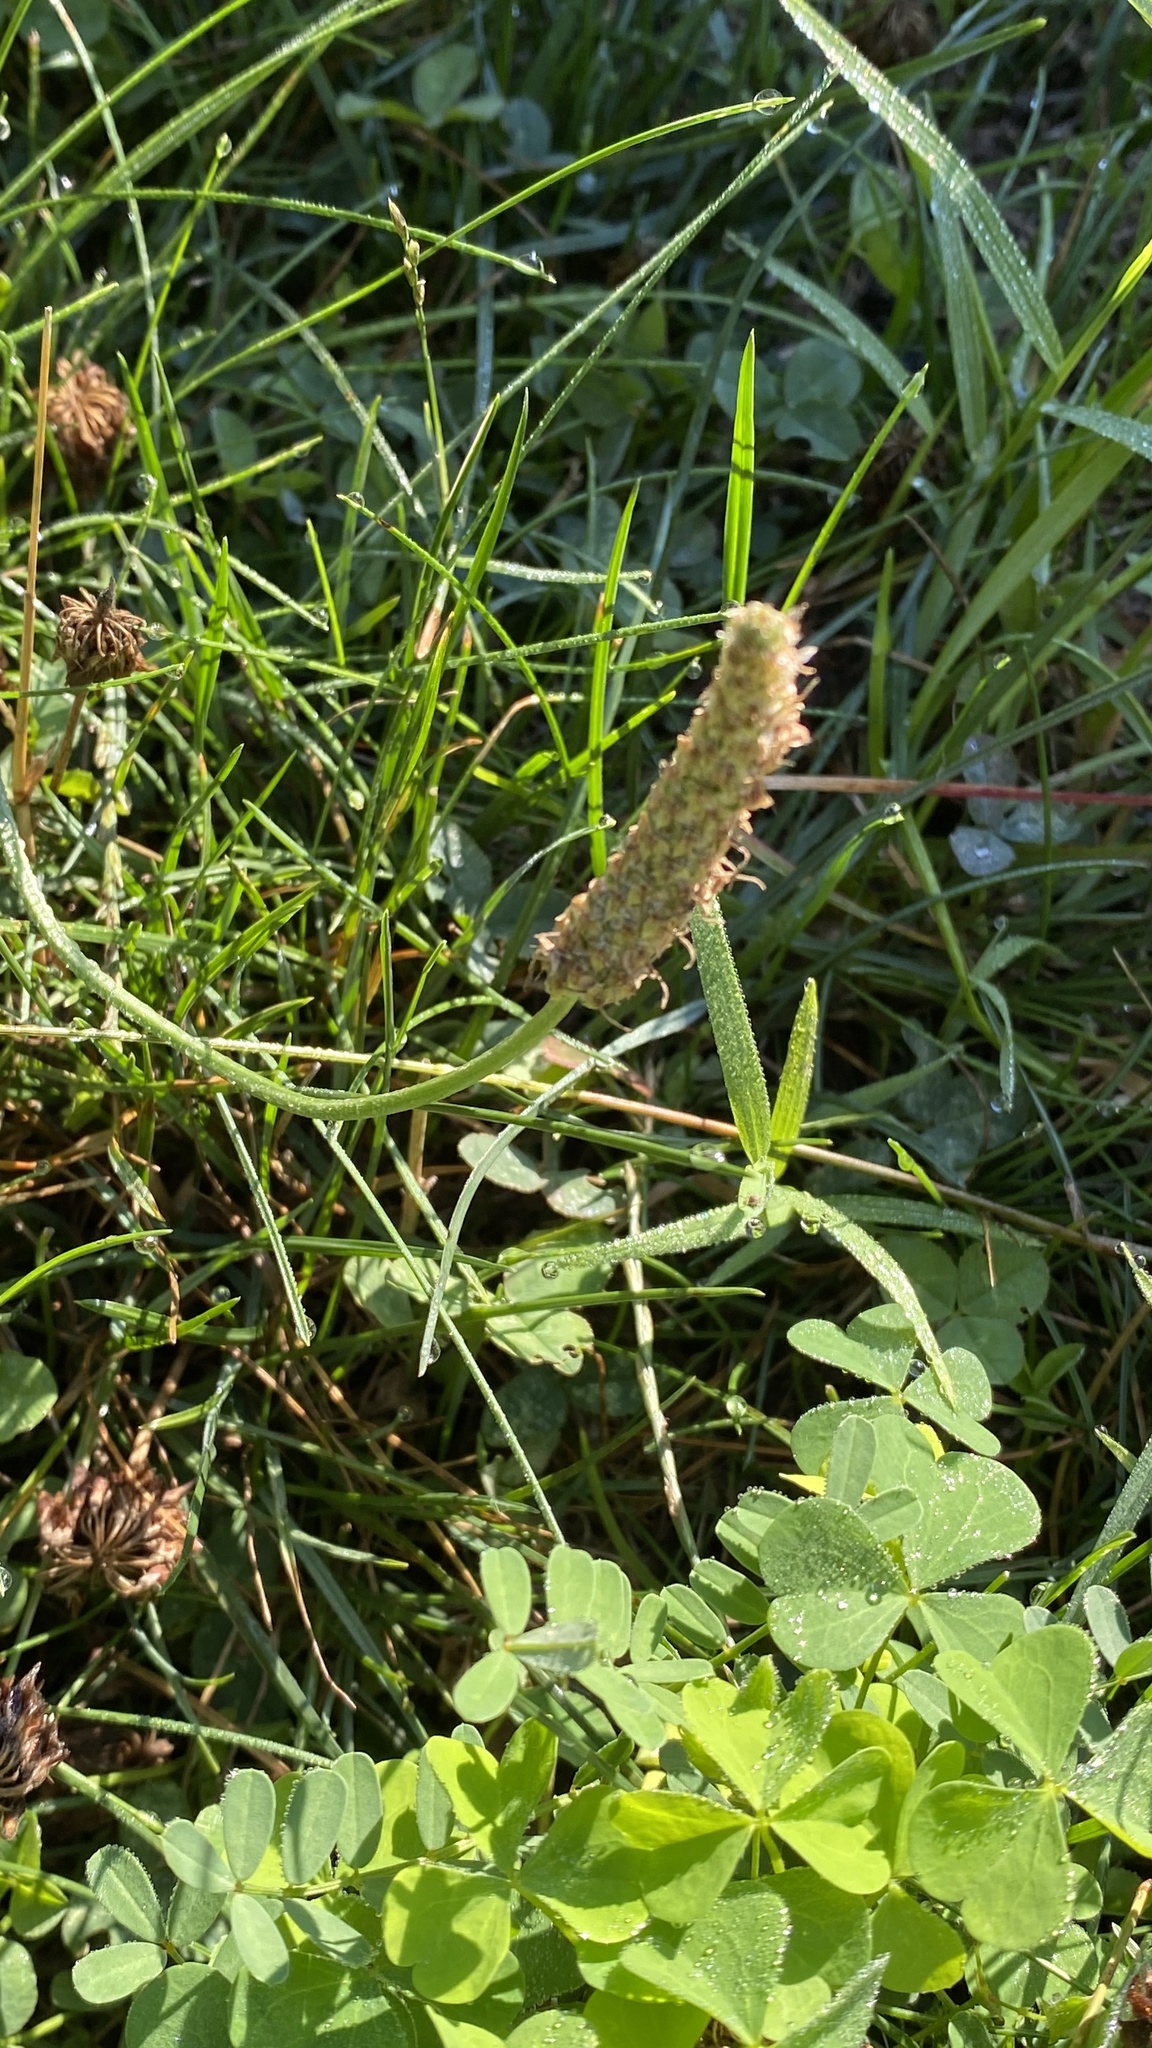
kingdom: Plantae
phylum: Tracheophyta
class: Magnoliopsida
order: Lamiales
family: Plantaginaceae
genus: Plantago
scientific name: Plantago lanceolata
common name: Ribwort plantain
